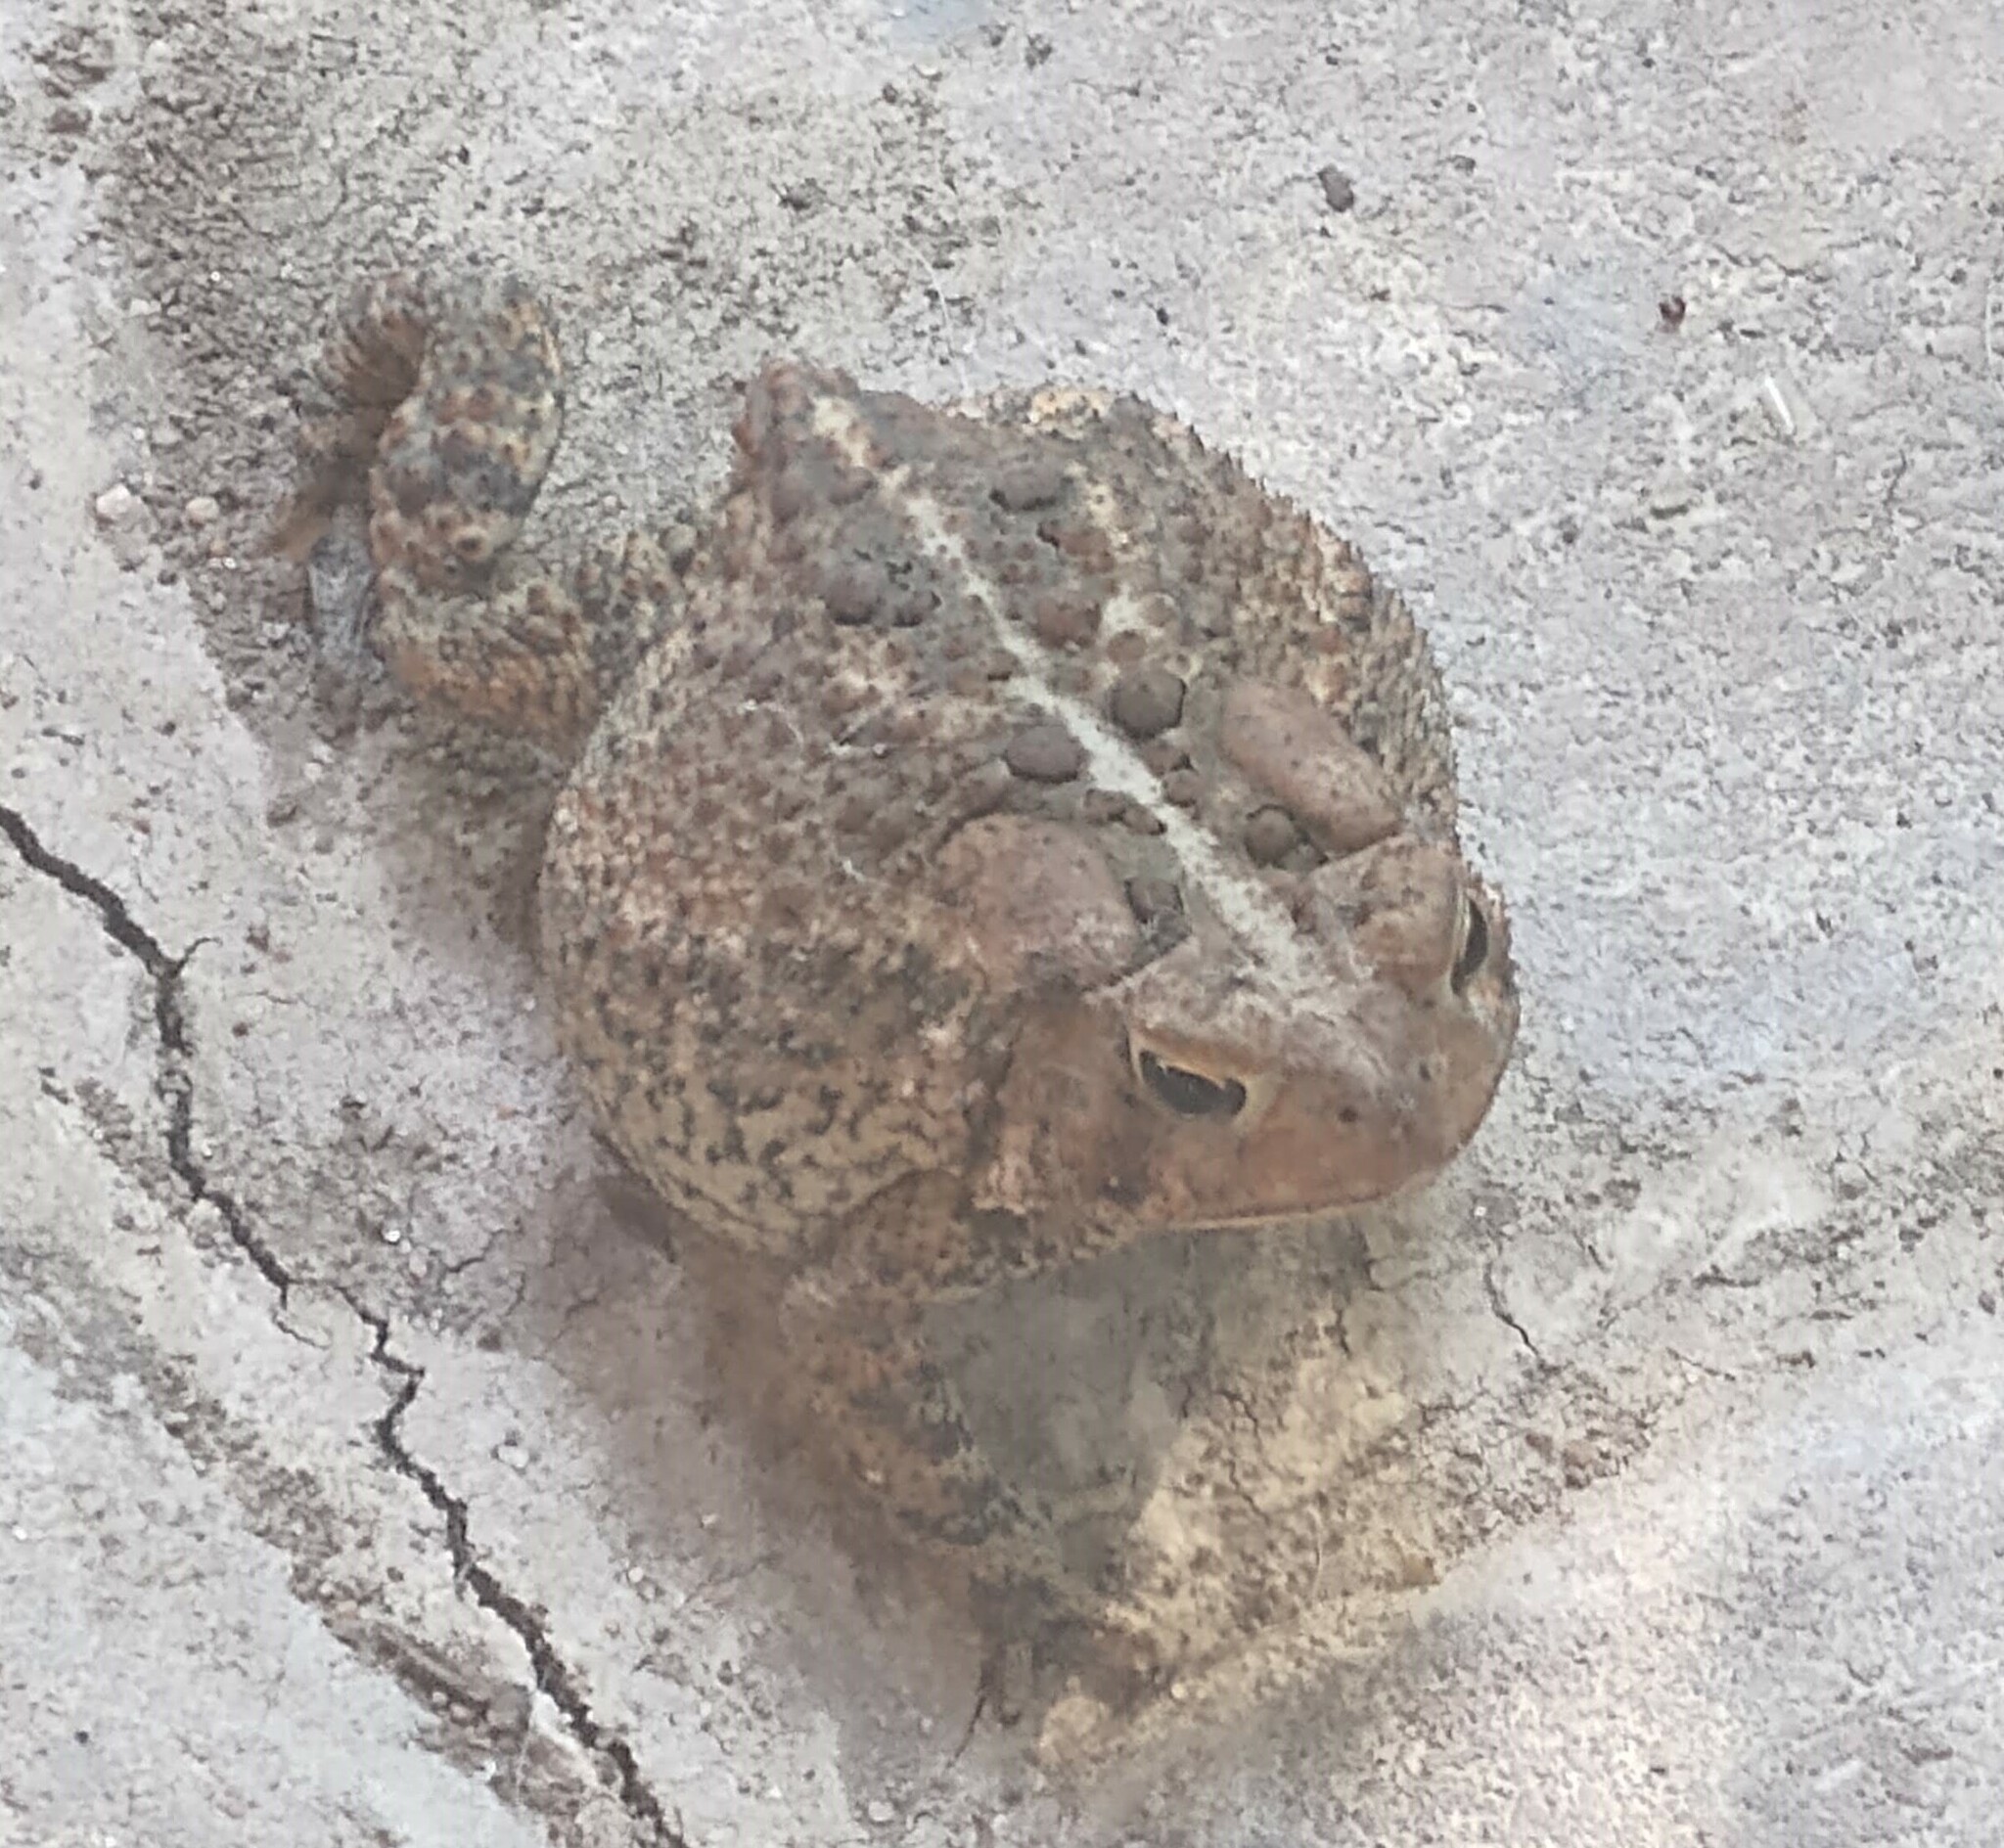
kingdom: Animalia
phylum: Chordata
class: Amphibia
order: Anura
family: Bufonidae
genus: Anaxyrus
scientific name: Anaxyrus americanus
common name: American toad
